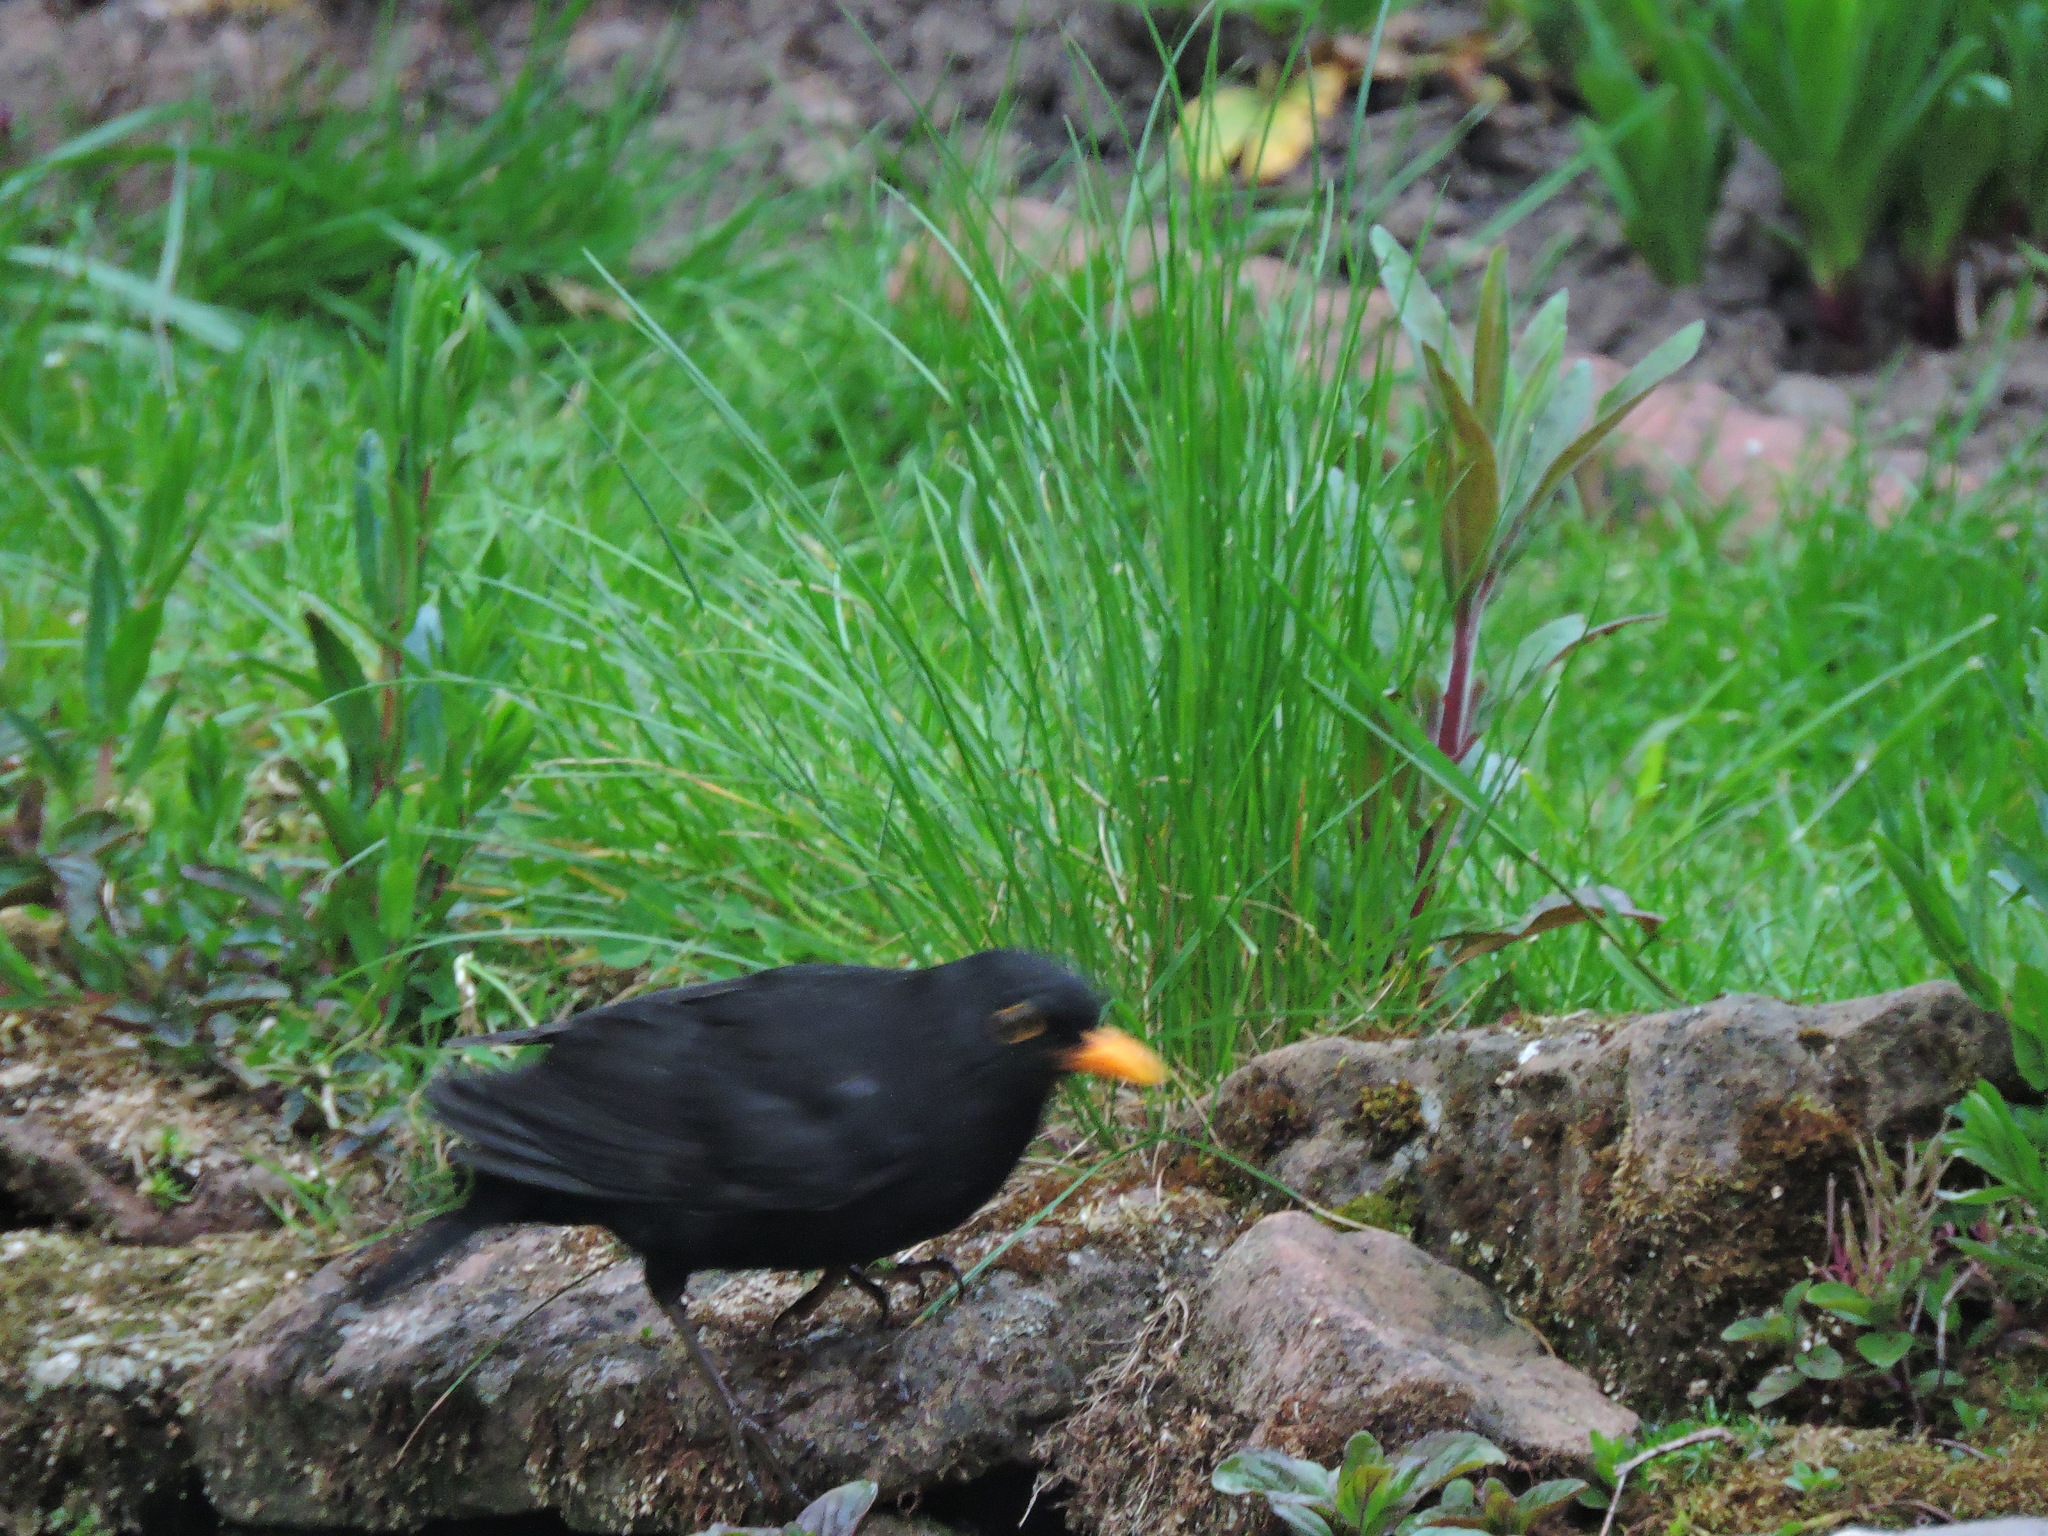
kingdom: Animalia
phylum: Chordata
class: Aves
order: Passeriformes
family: Turdidae
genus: Turdus
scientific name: Turdus merula
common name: Common blackbird
